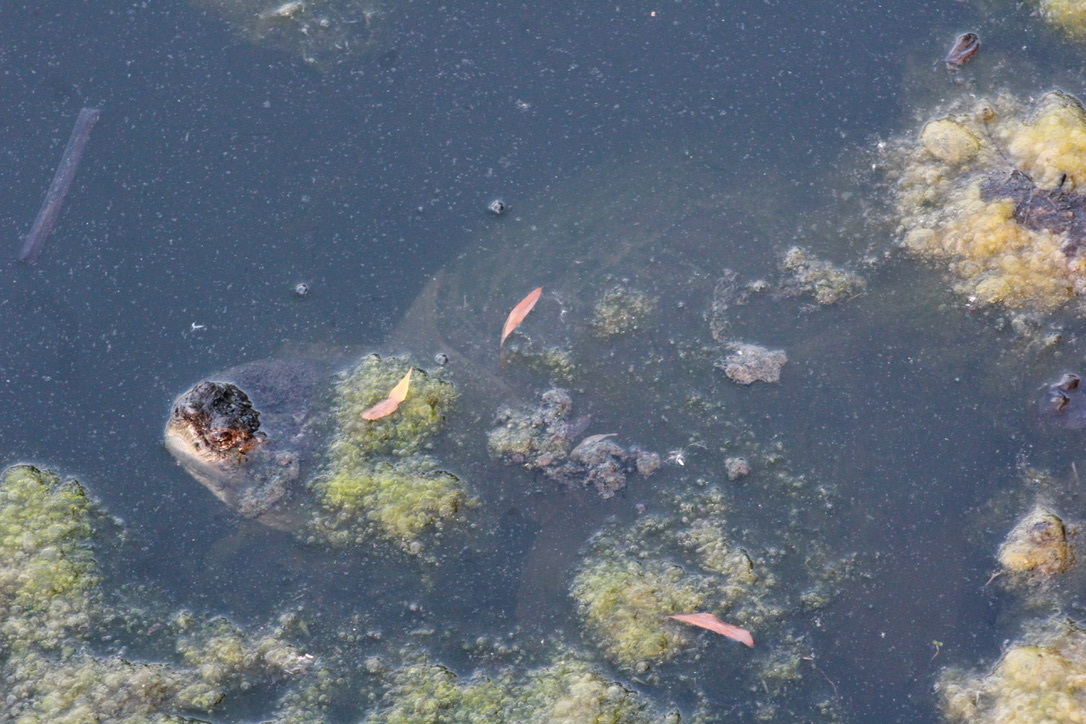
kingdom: Animalia
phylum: Chordata
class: Testudines
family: Chelydridae
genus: Chelydra
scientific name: Chelydra serpentina
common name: Common snapping turtle
